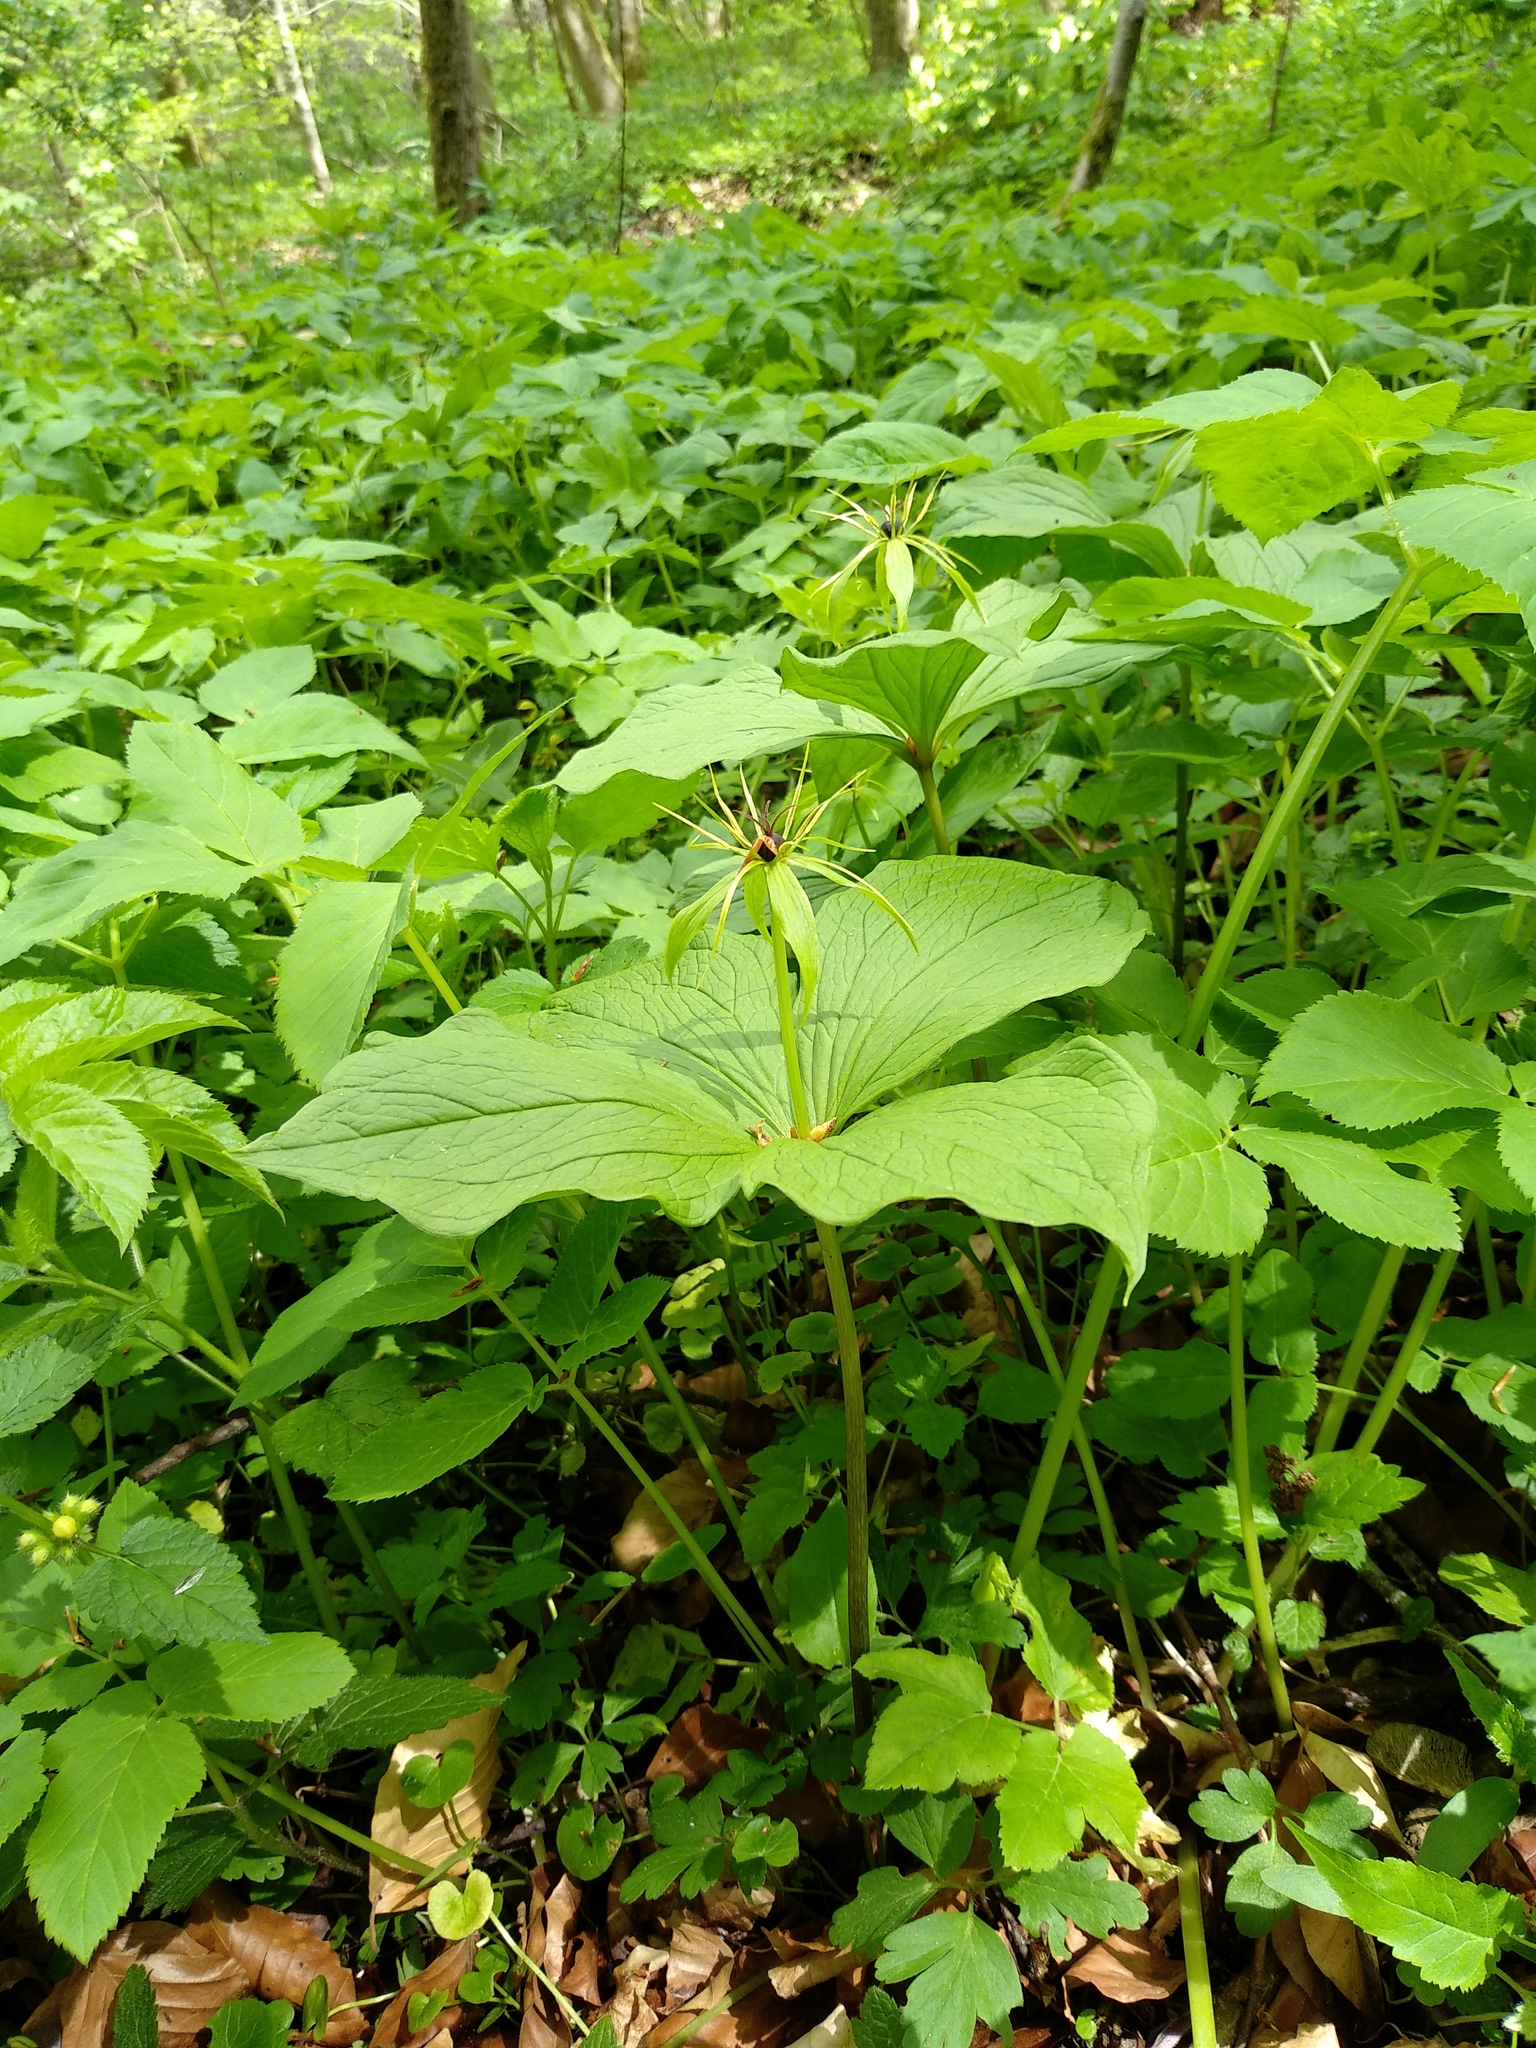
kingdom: Plantae
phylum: Tracheophyta
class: Liliopsida
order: Liliales
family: Melanthiaceae
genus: Paris
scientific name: Paris quadrifolia
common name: Herb-paris
